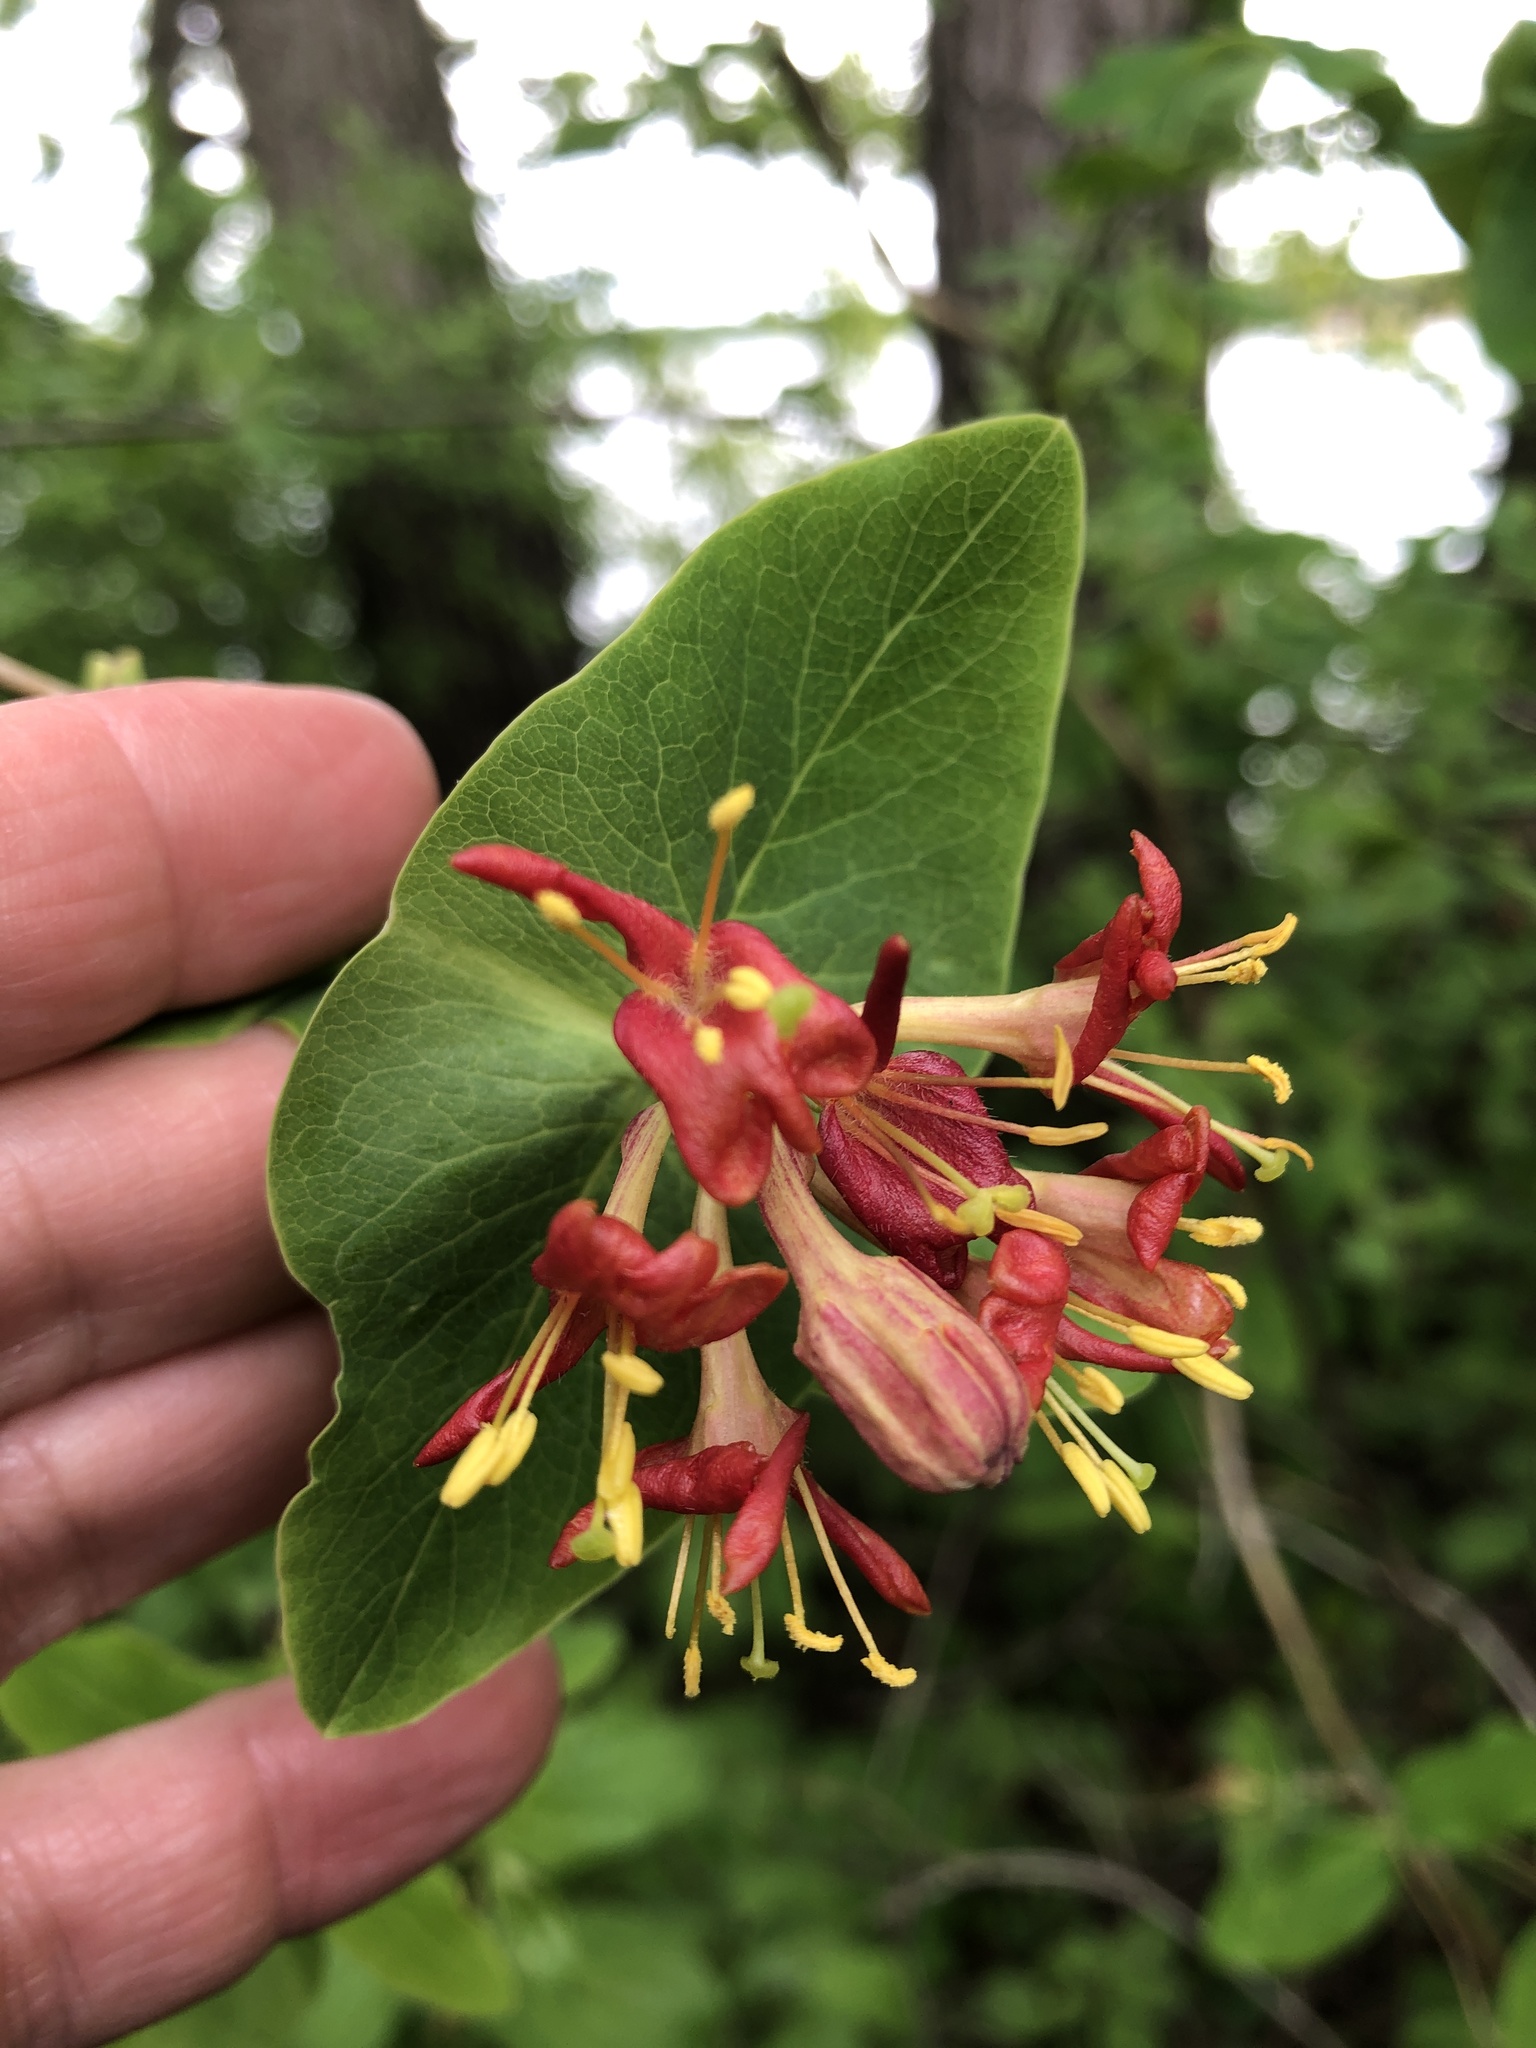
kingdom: Plantae
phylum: Tracheophyta
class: Magnoliopsida
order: Dipsacales
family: Caprifoliaceae
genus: Lonicera
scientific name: Lonicera dioica
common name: Limber honeysuckle
